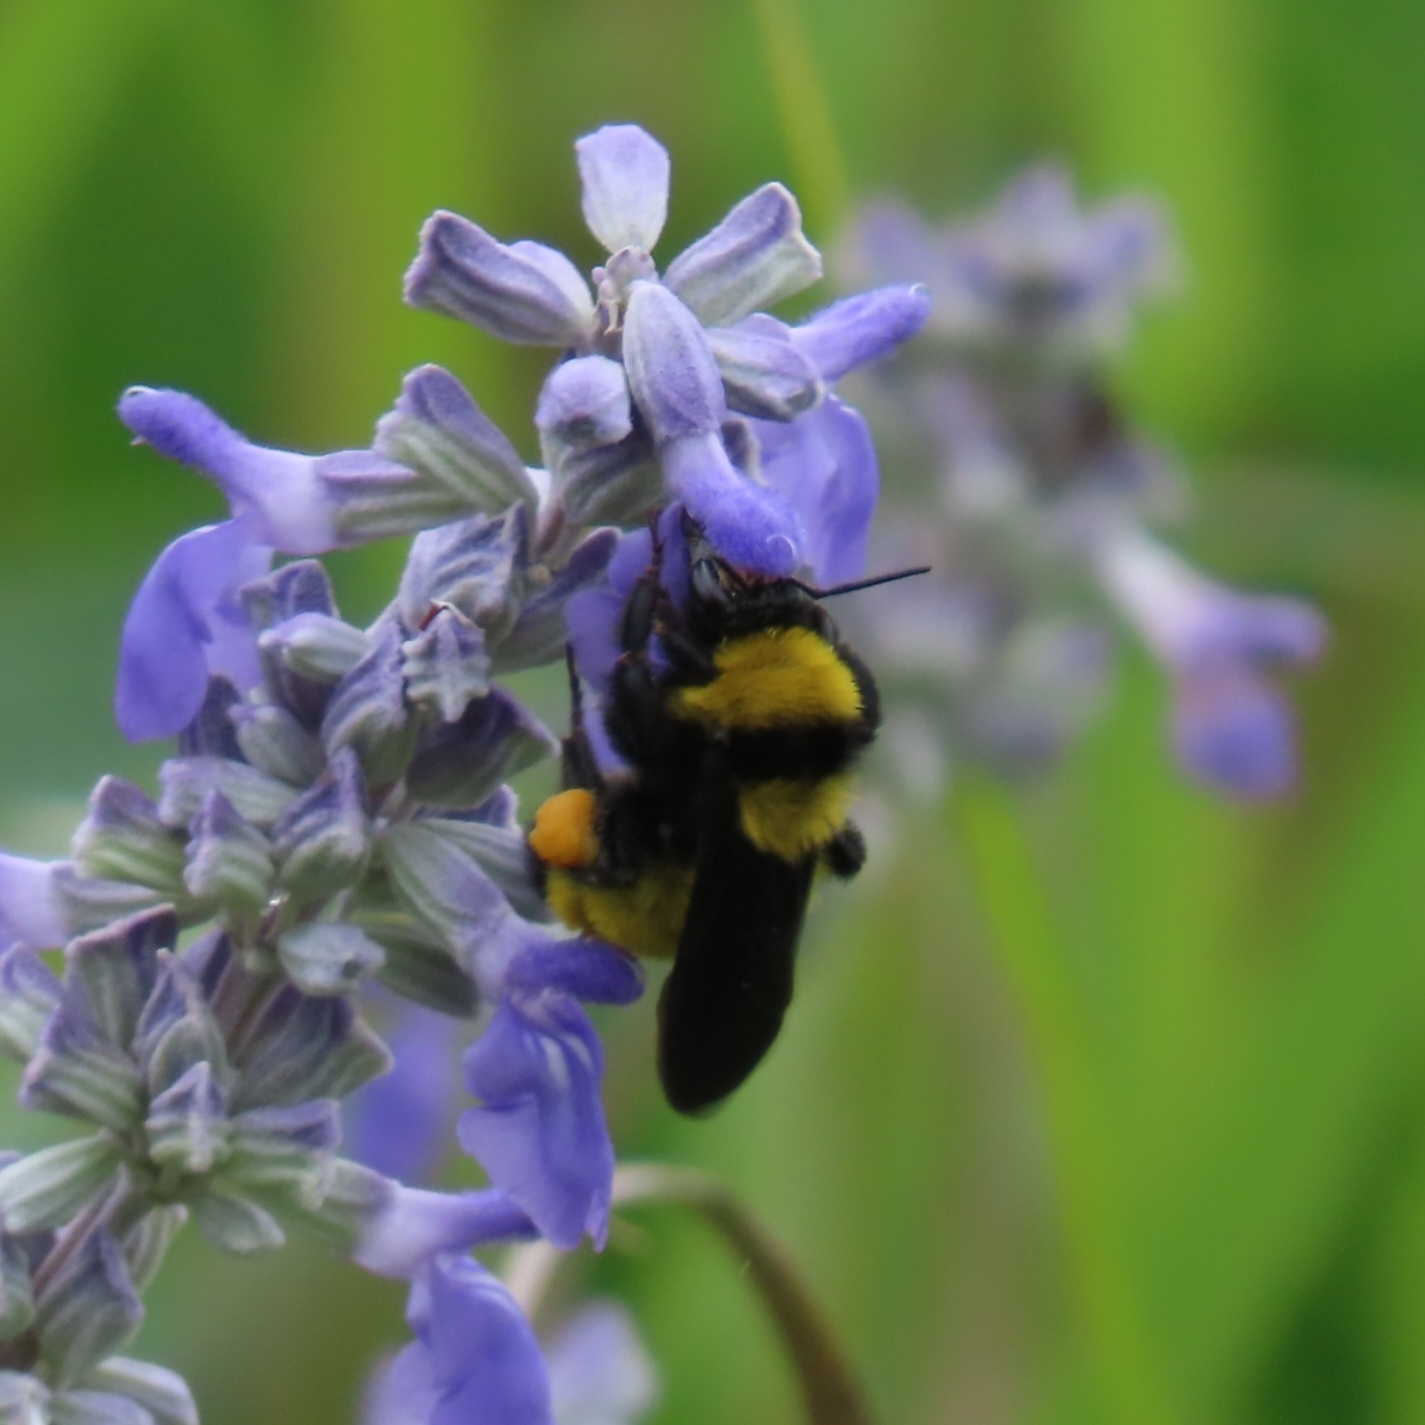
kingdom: Animalia
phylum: Arthropoda
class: Insecta
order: Hymenoptera
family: Apidae
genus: Bombus
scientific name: Bombus sonorus
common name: Sonoran bumble bee
